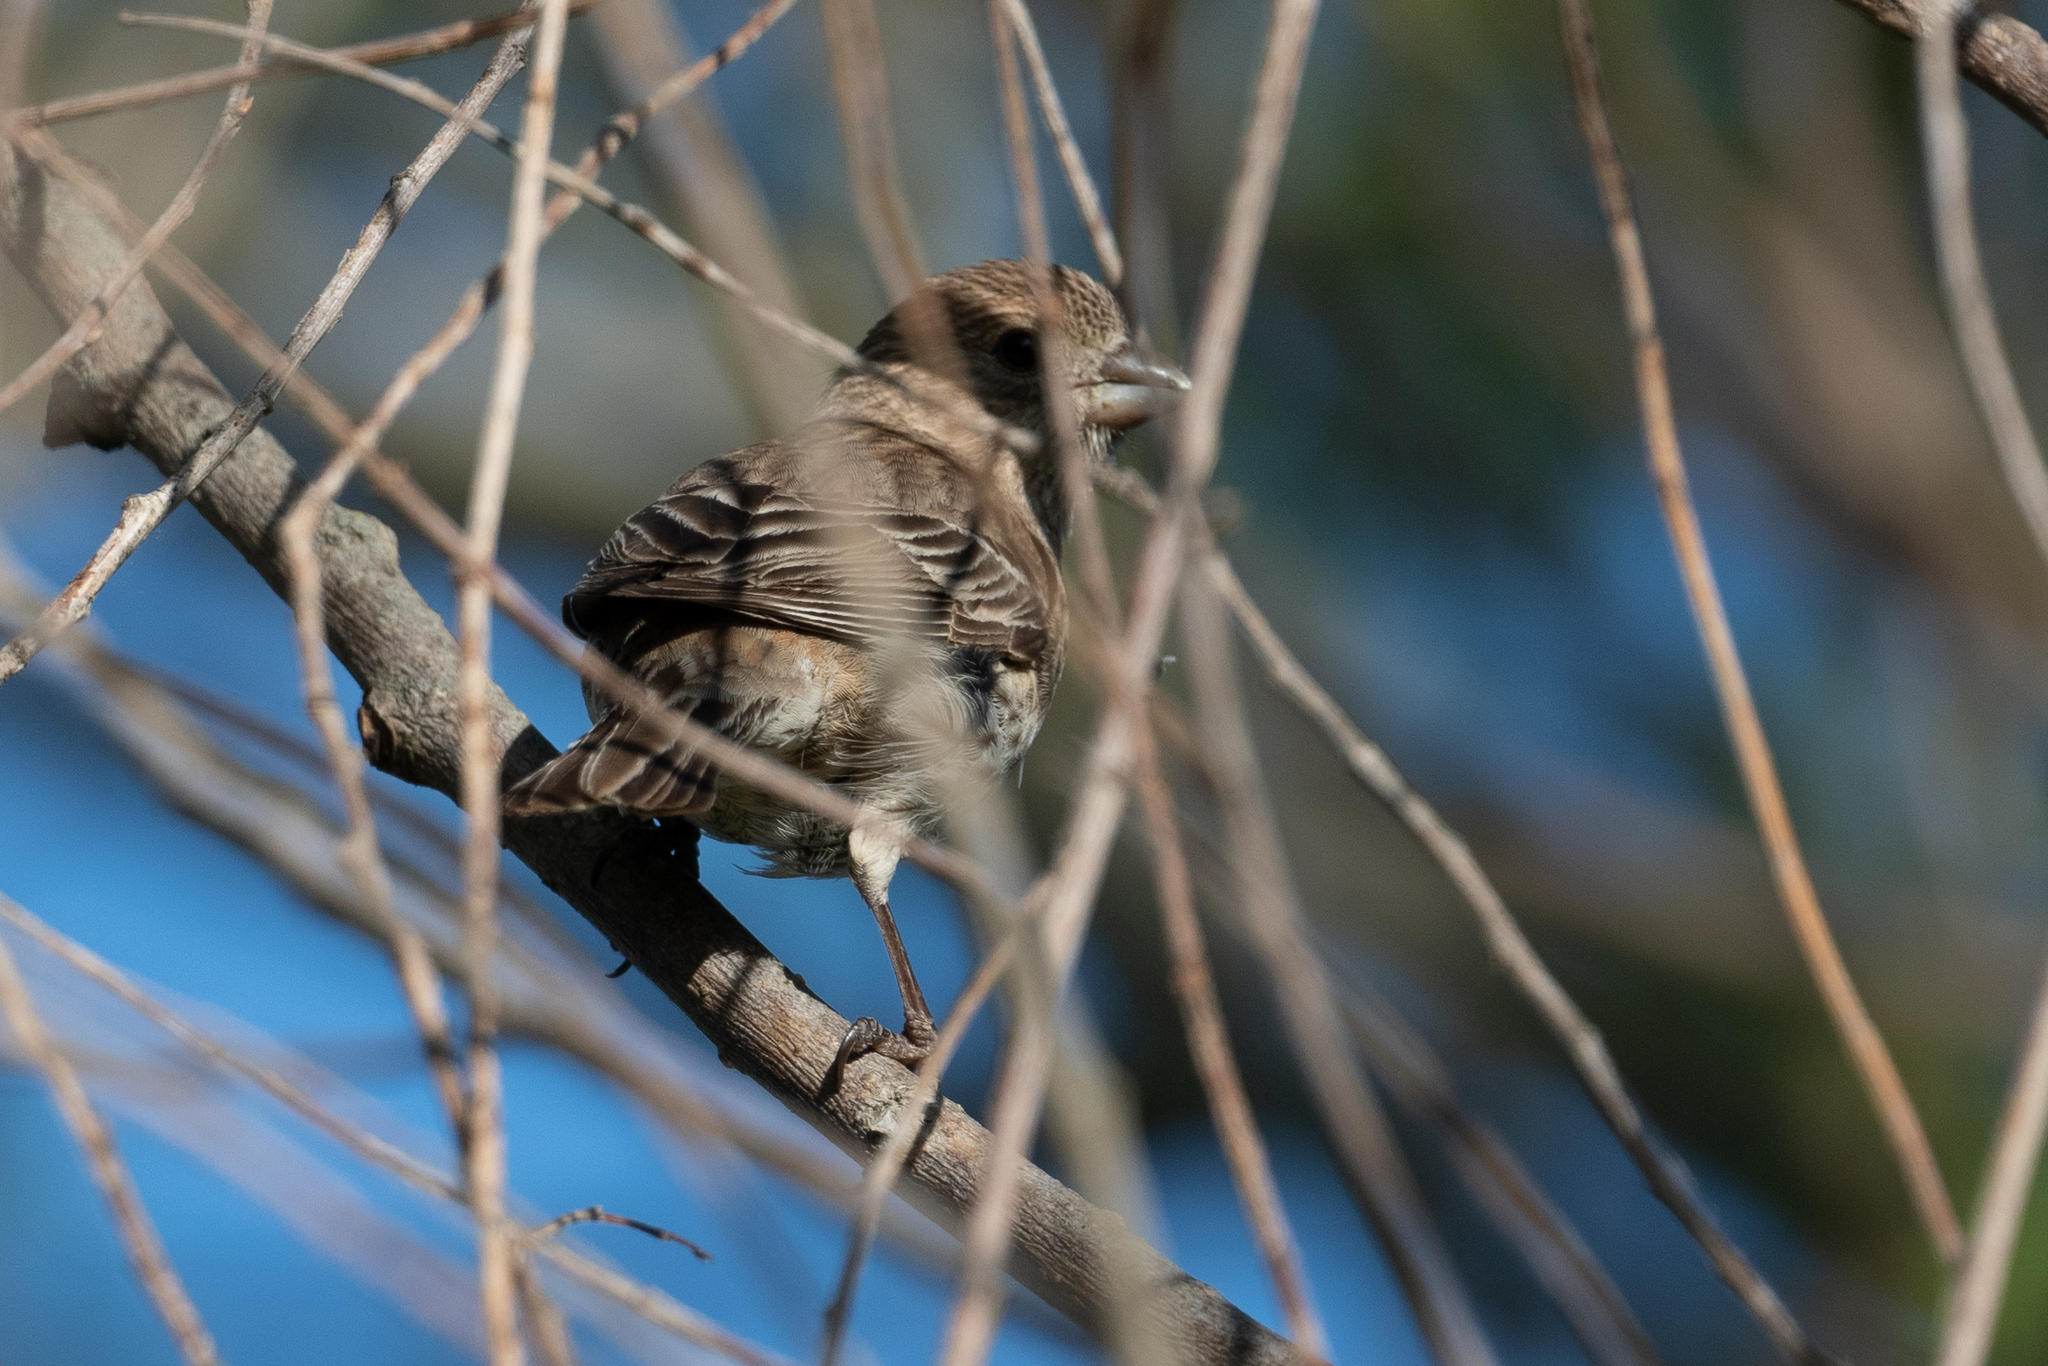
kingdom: Animalia
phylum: Chordata
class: Aves
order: Passeriformes
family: Fringillidae
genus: Haemorhous
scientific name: Haemorhous mexicanus
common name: House finch
